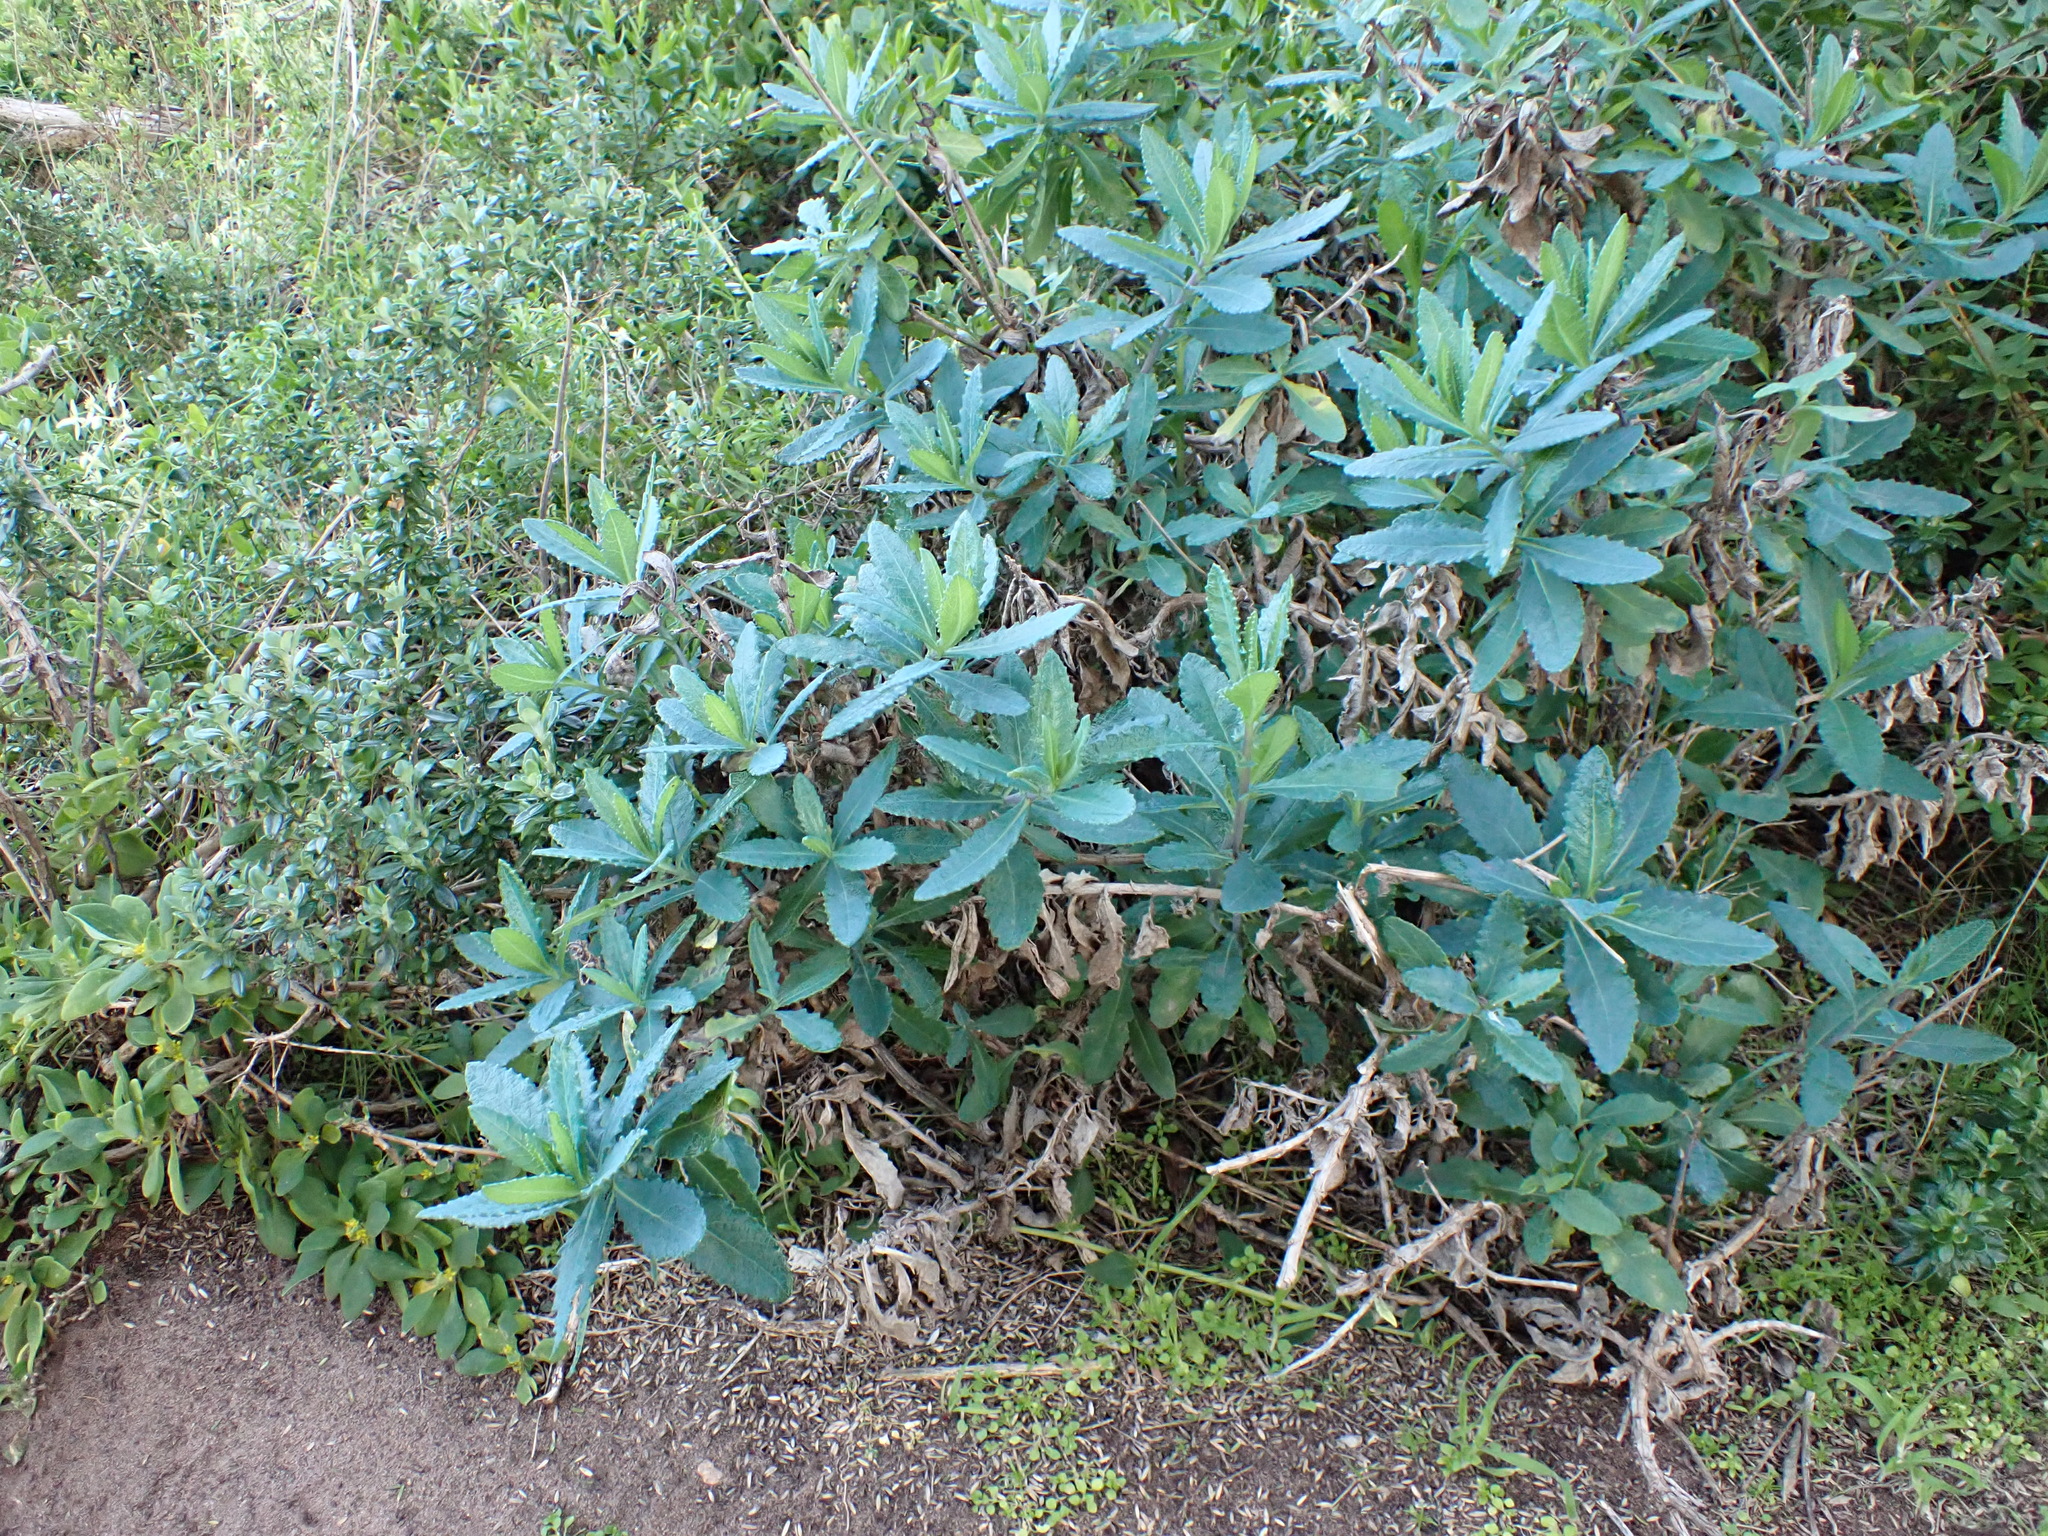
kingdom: Plantae
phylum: Tracheophyta
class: Magnoliopsida
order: Asterales
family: Asteraceae
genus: Senecio
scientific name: Senecio odoratus
